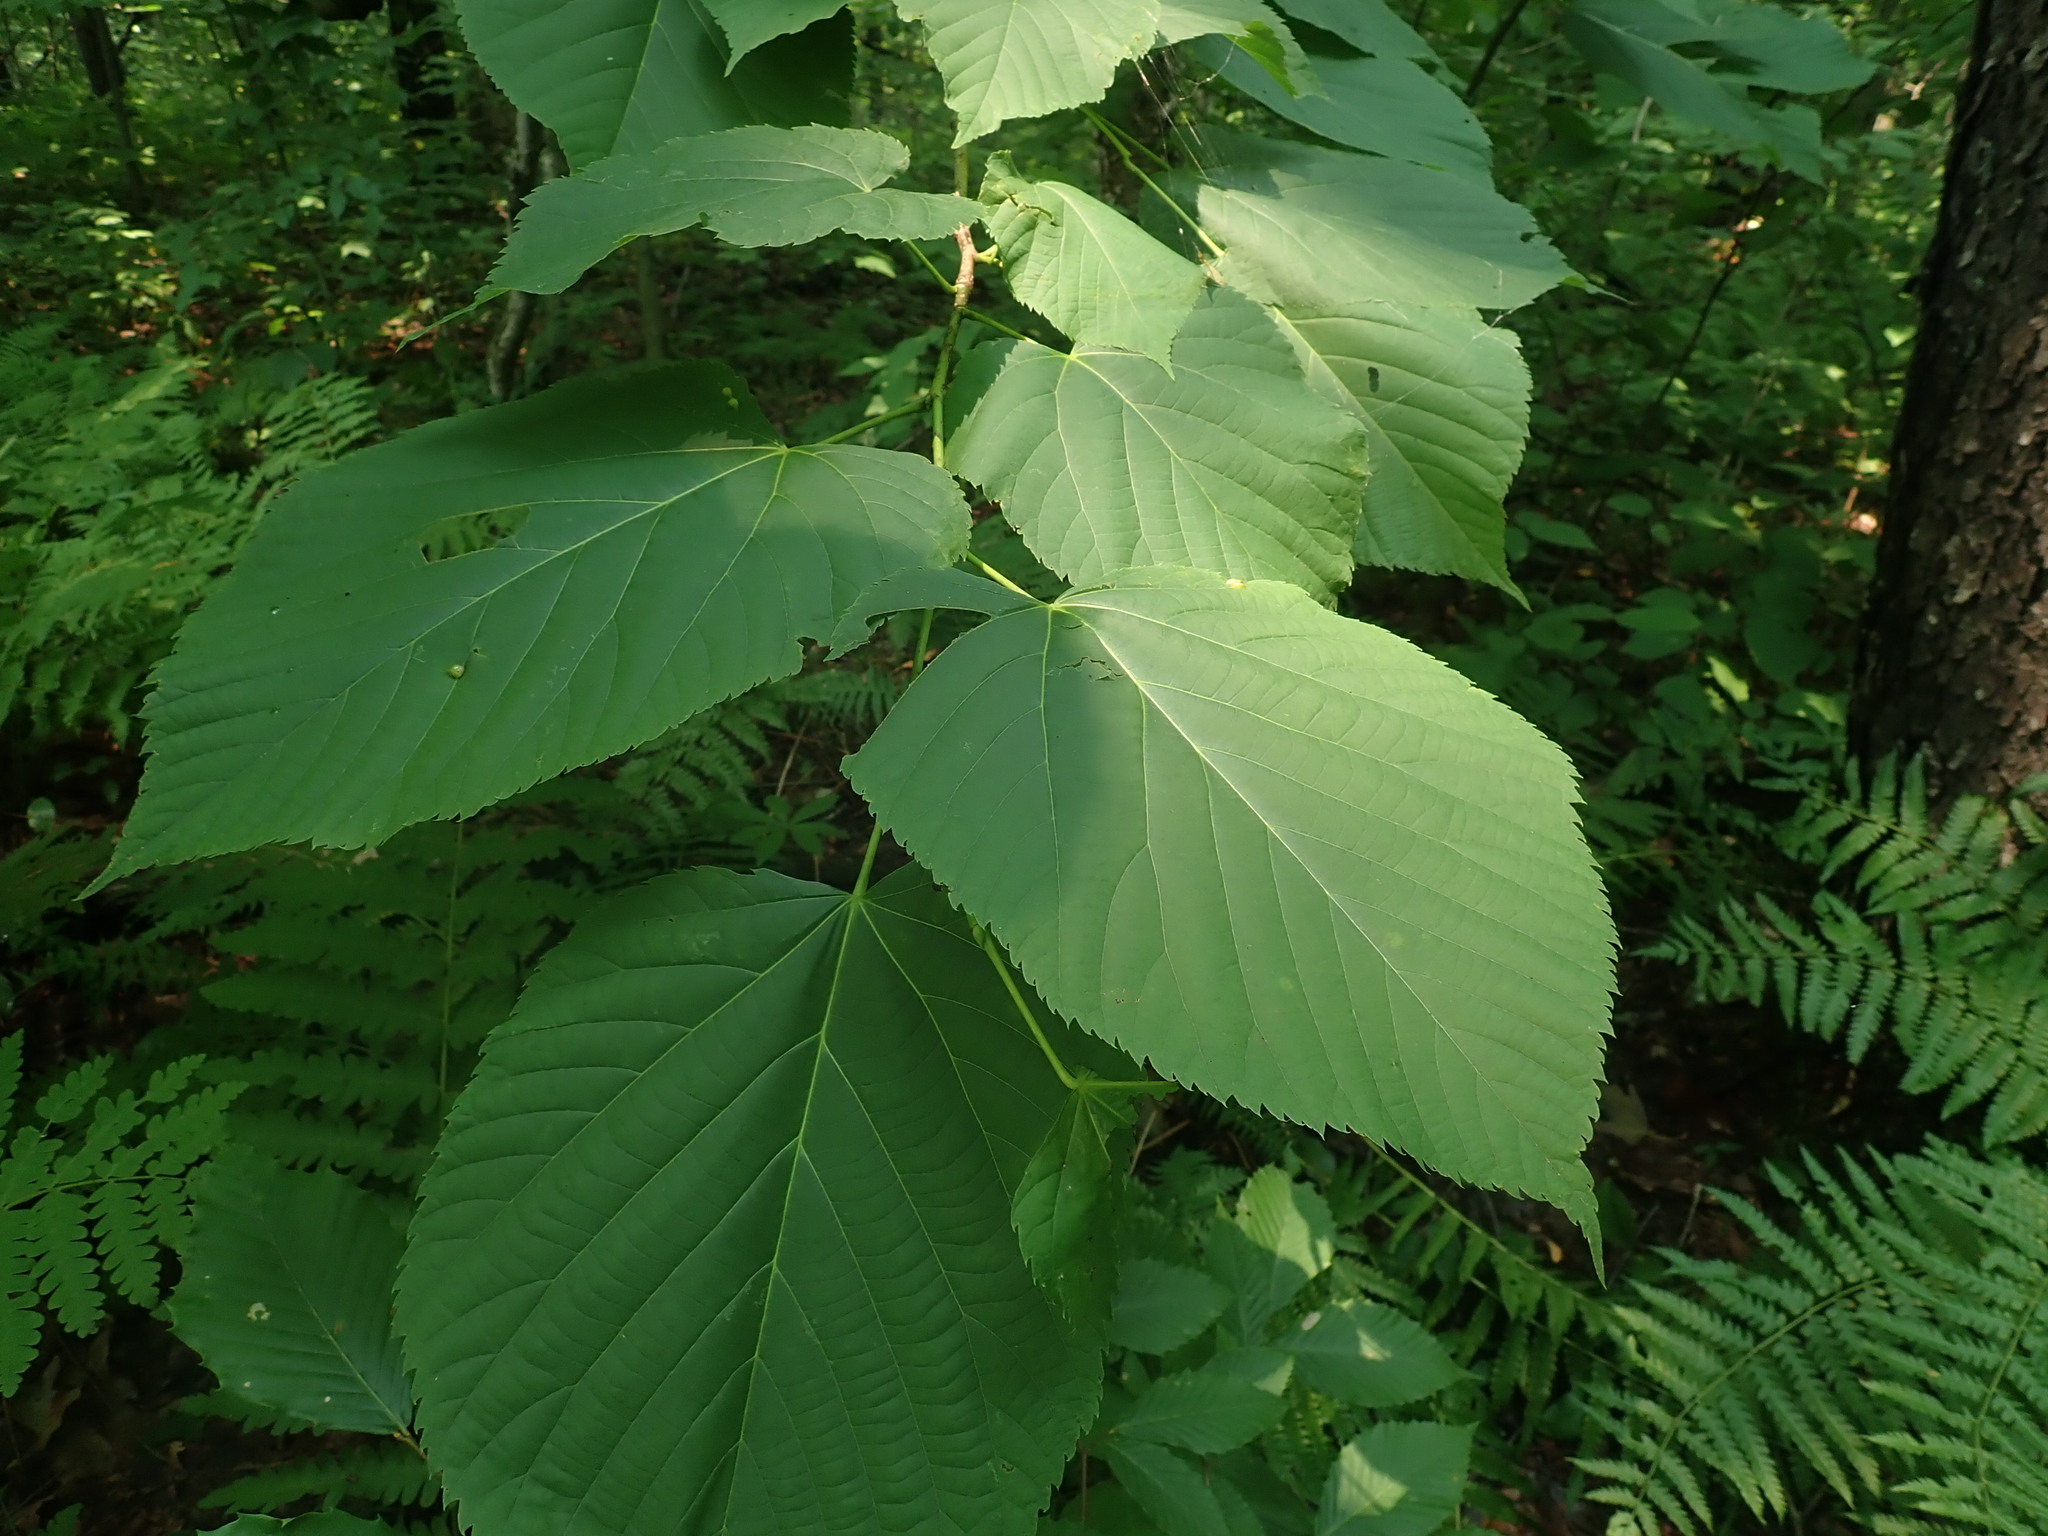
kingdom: Plantae
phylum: Tracheophyta
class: Magnoliopsida
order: Malvales
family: Malvaceae
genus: Tilia
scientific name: Tilia americana
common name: Basswood
